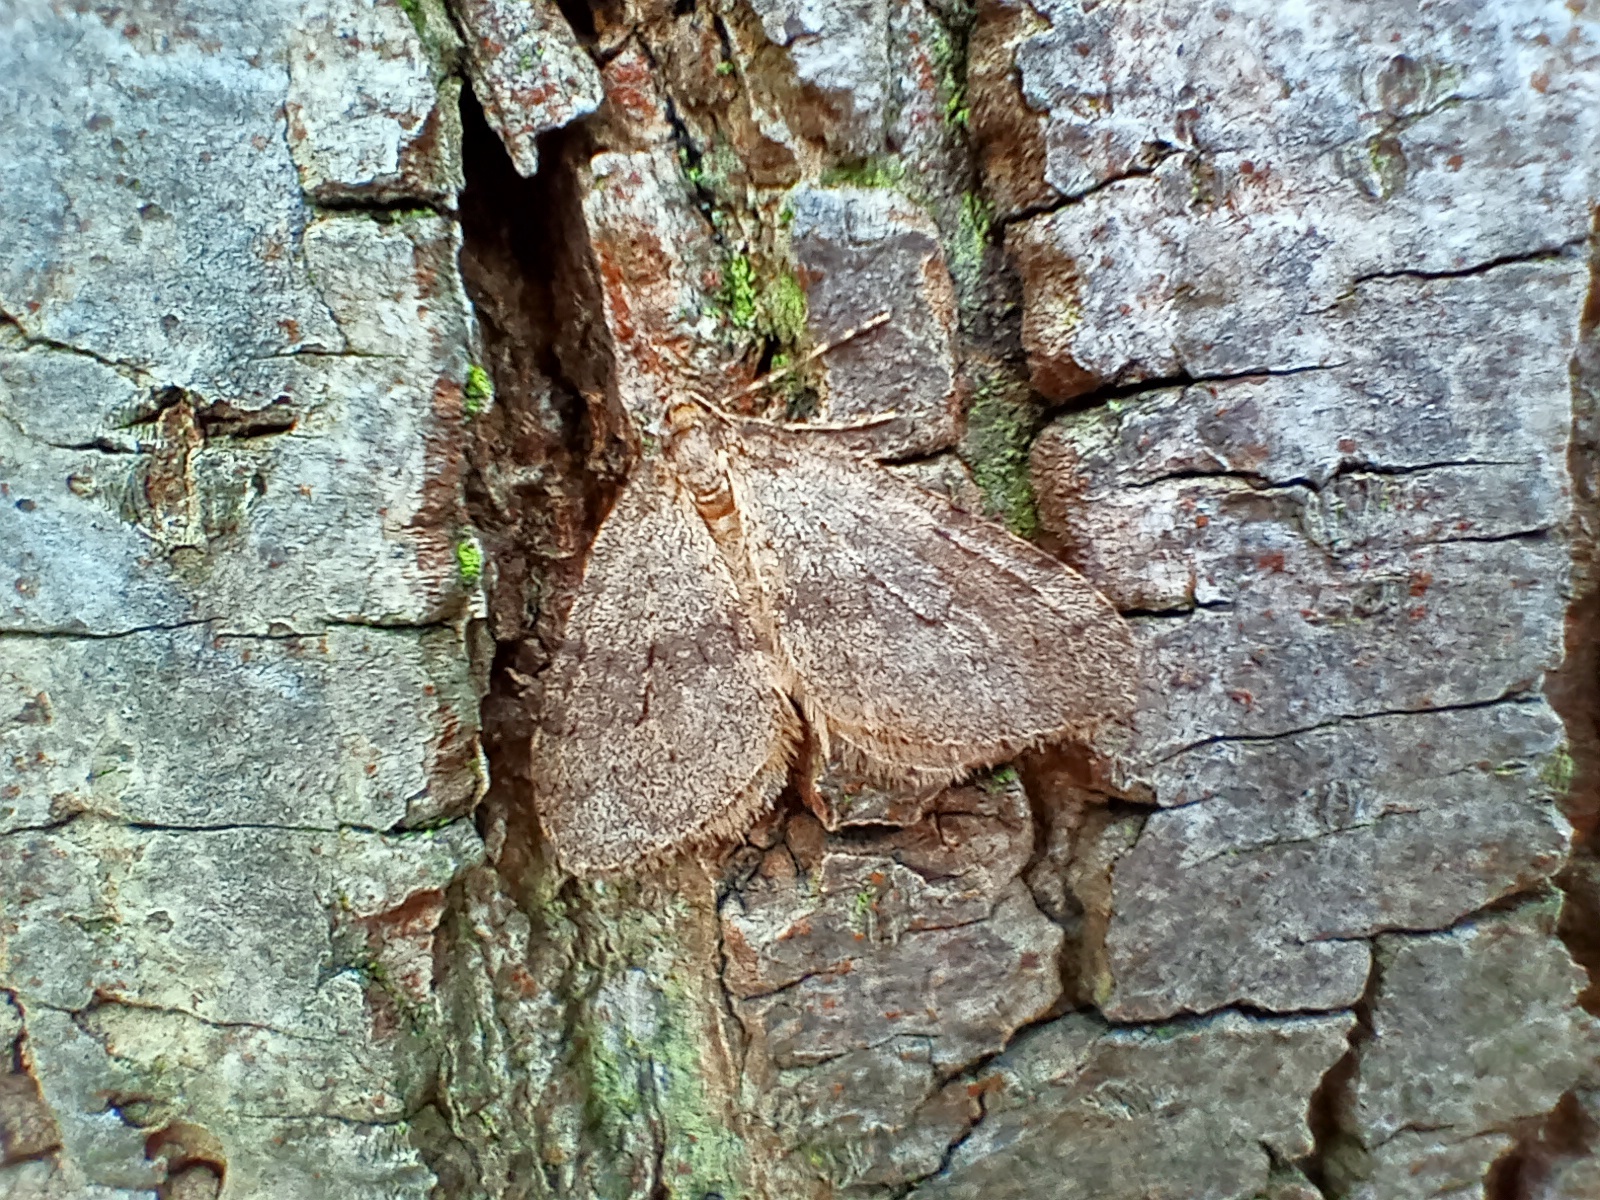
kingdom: Animalia
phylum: Arthropoda
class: Insecta
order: Lepidoptera
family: Geometridae
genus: Operophtera
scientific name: Operophtera brumata
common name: Winter moth
